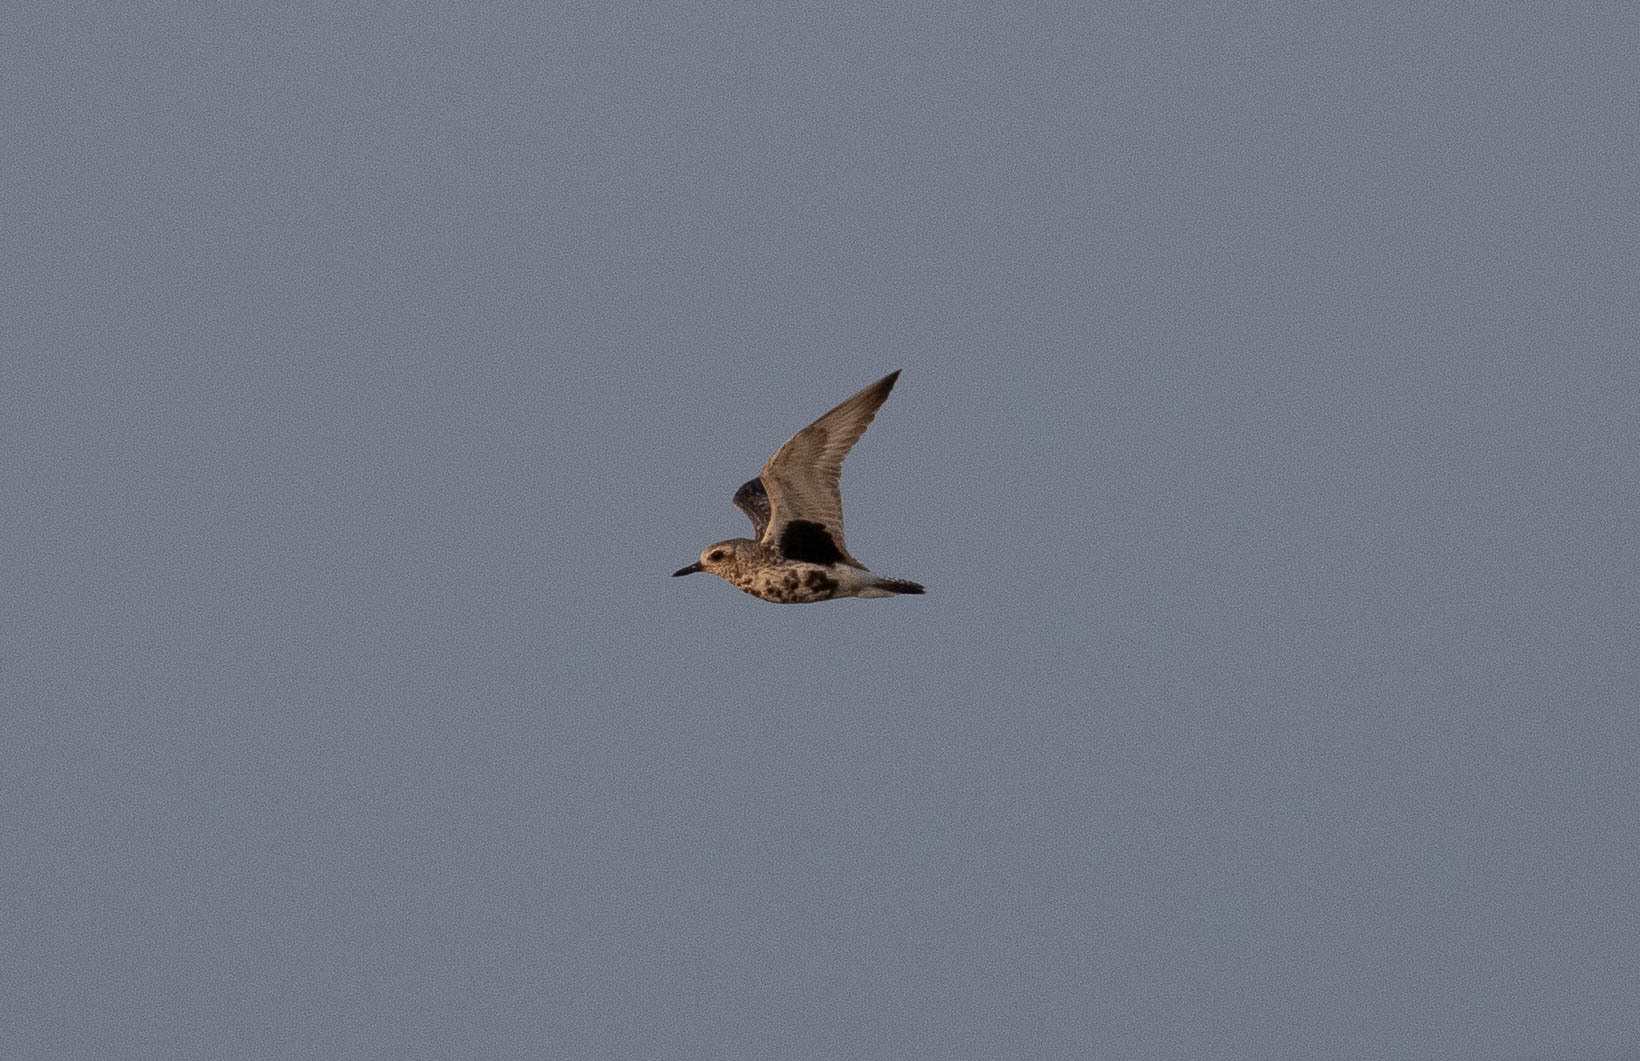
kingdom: Animalia
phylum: Chordata
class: Aves
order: Charadriiformes
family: Charadriidae
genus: Pluvialis
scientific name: Pluvialis squatarola
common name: Grey plover
